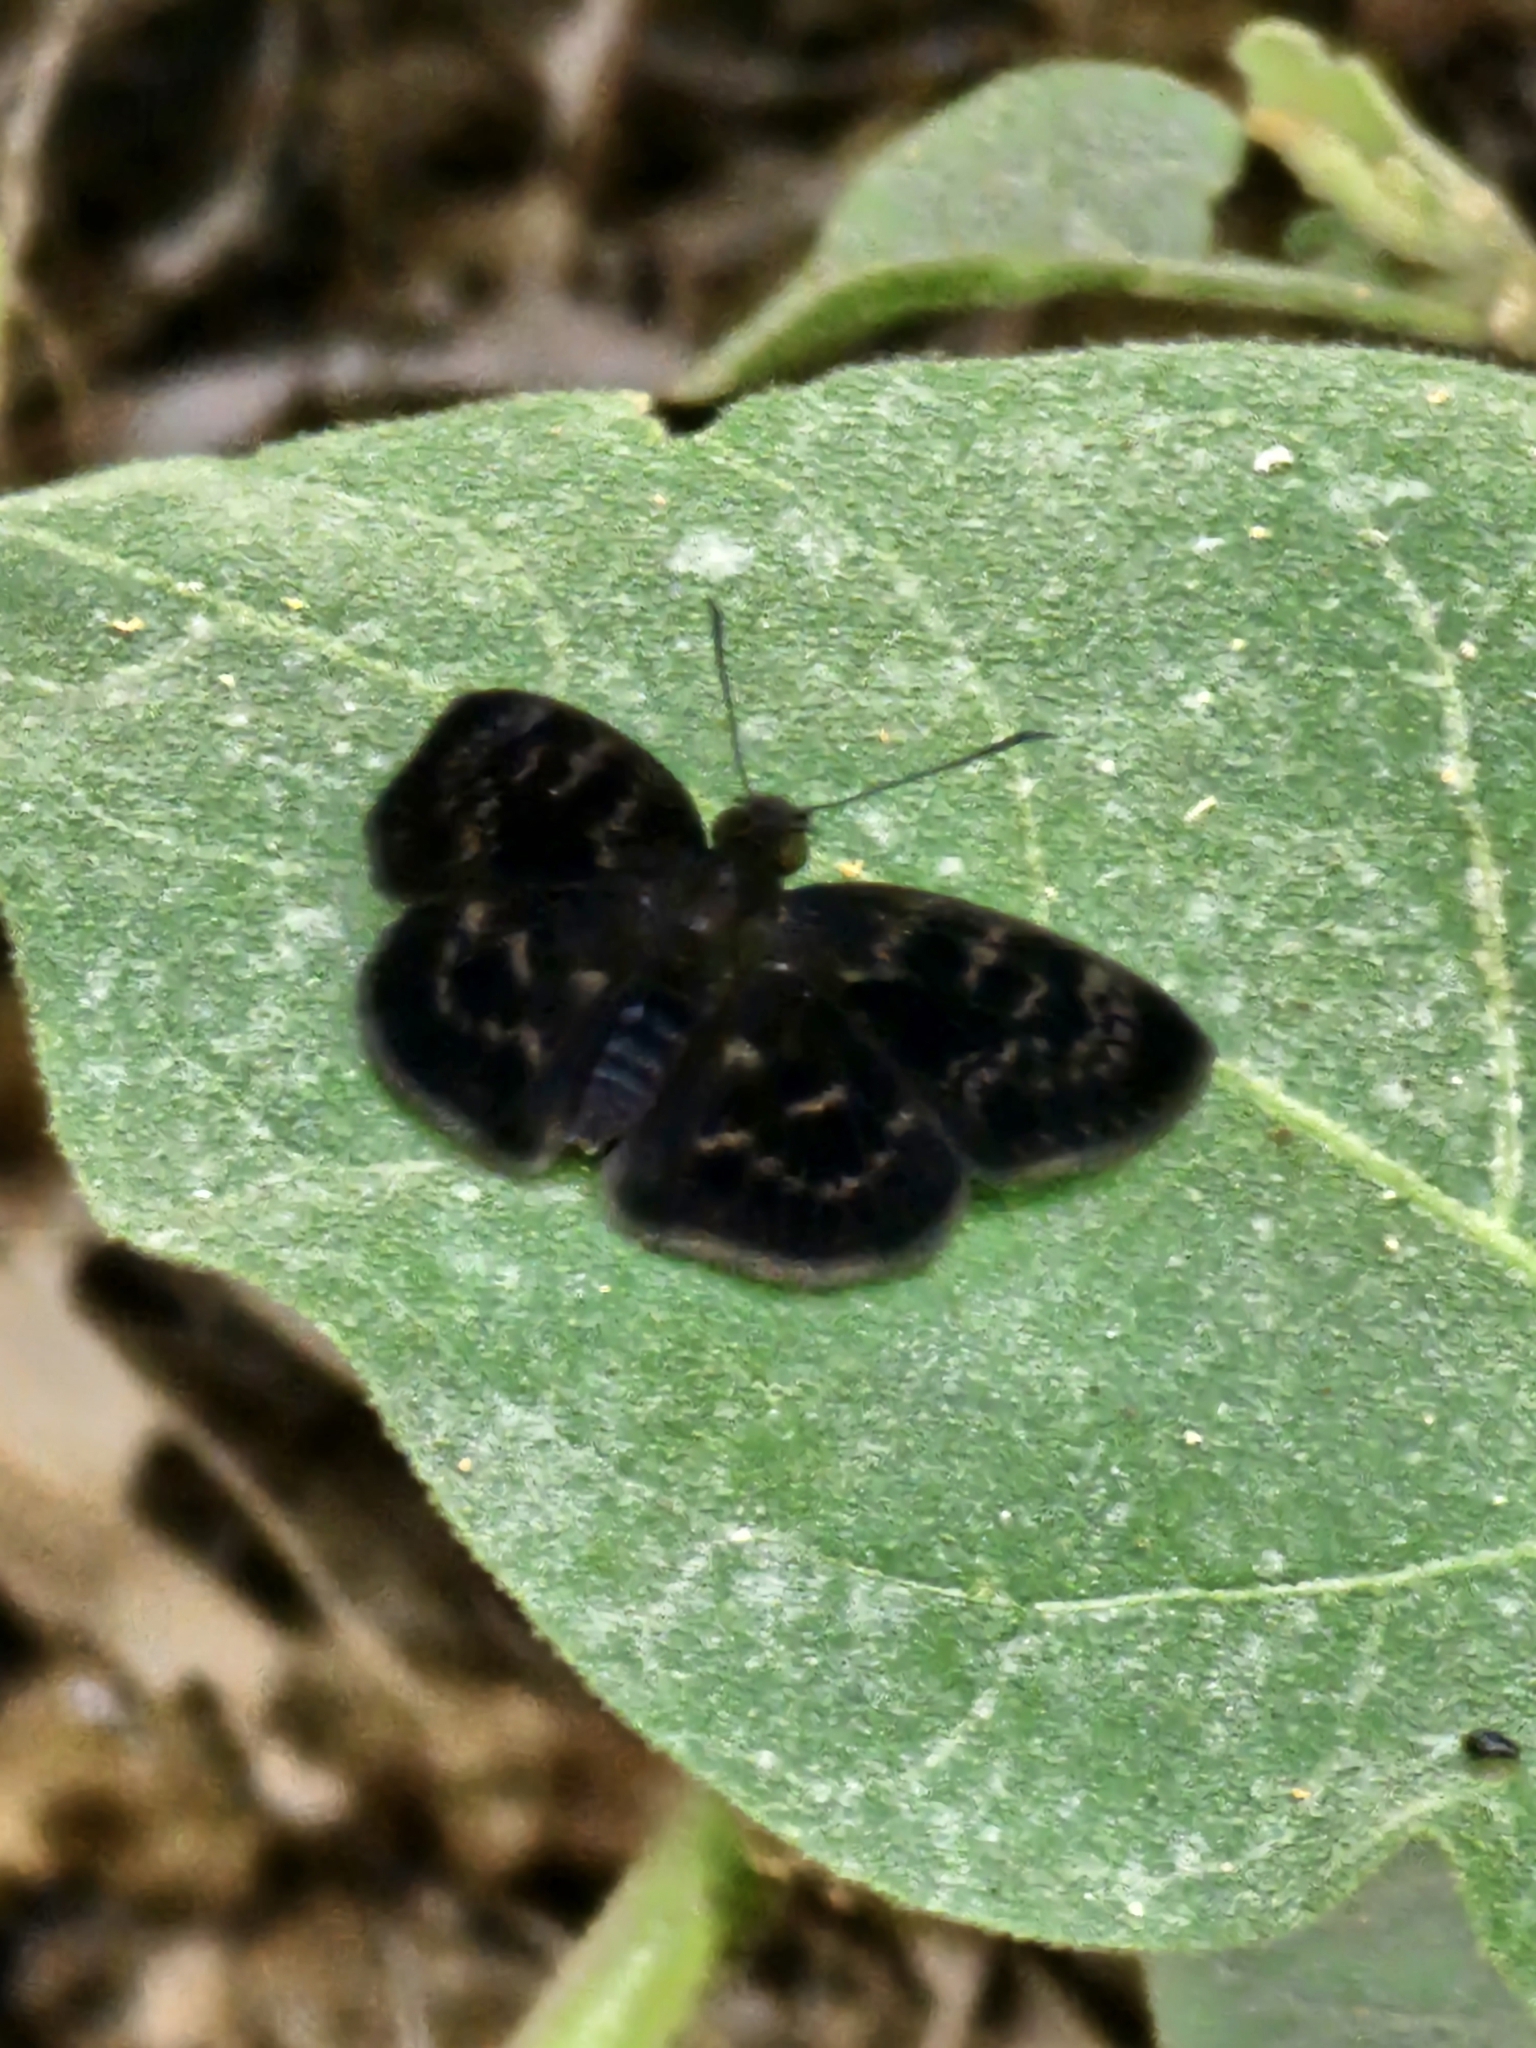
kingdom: Animalia
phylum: Arthropoda
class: Insecta
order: Lepidoptera
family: Hesperiidae
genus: Ouleus
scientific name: Ouleus fridericus
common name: Fridericus spreadwing
